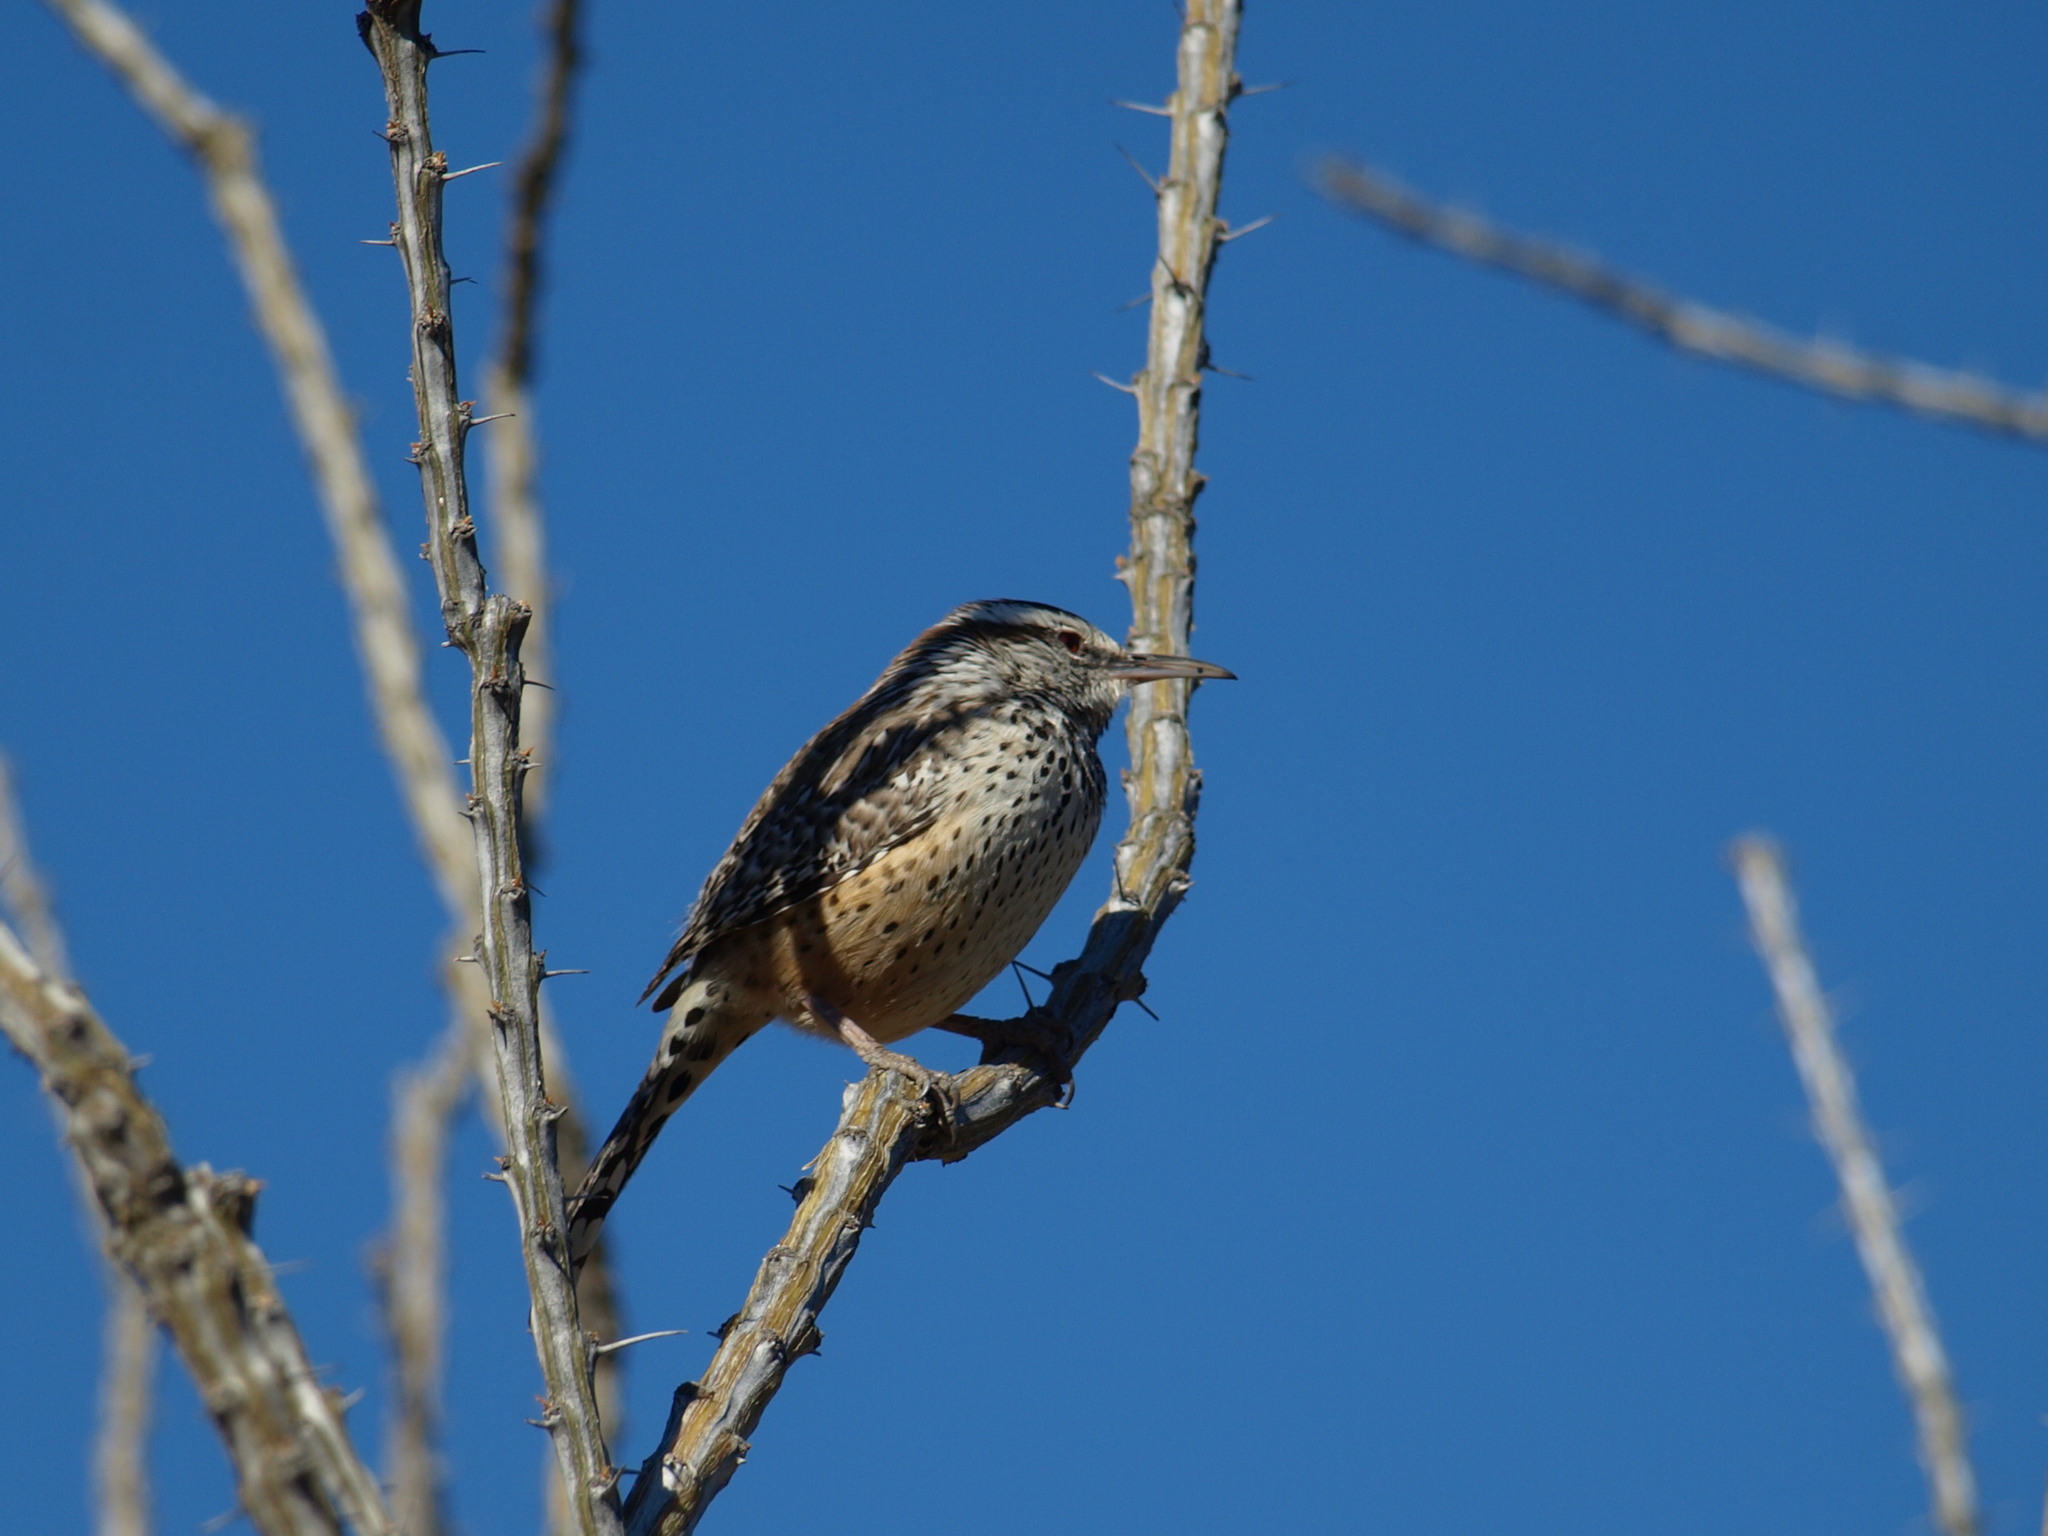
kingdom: Animalia
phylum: Chordata
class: Aves
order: Passeriformes
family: Troglodytidae
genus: Campylorhynchus
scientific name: Campylorhynchus brunneicapillus
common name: Cactus wren
